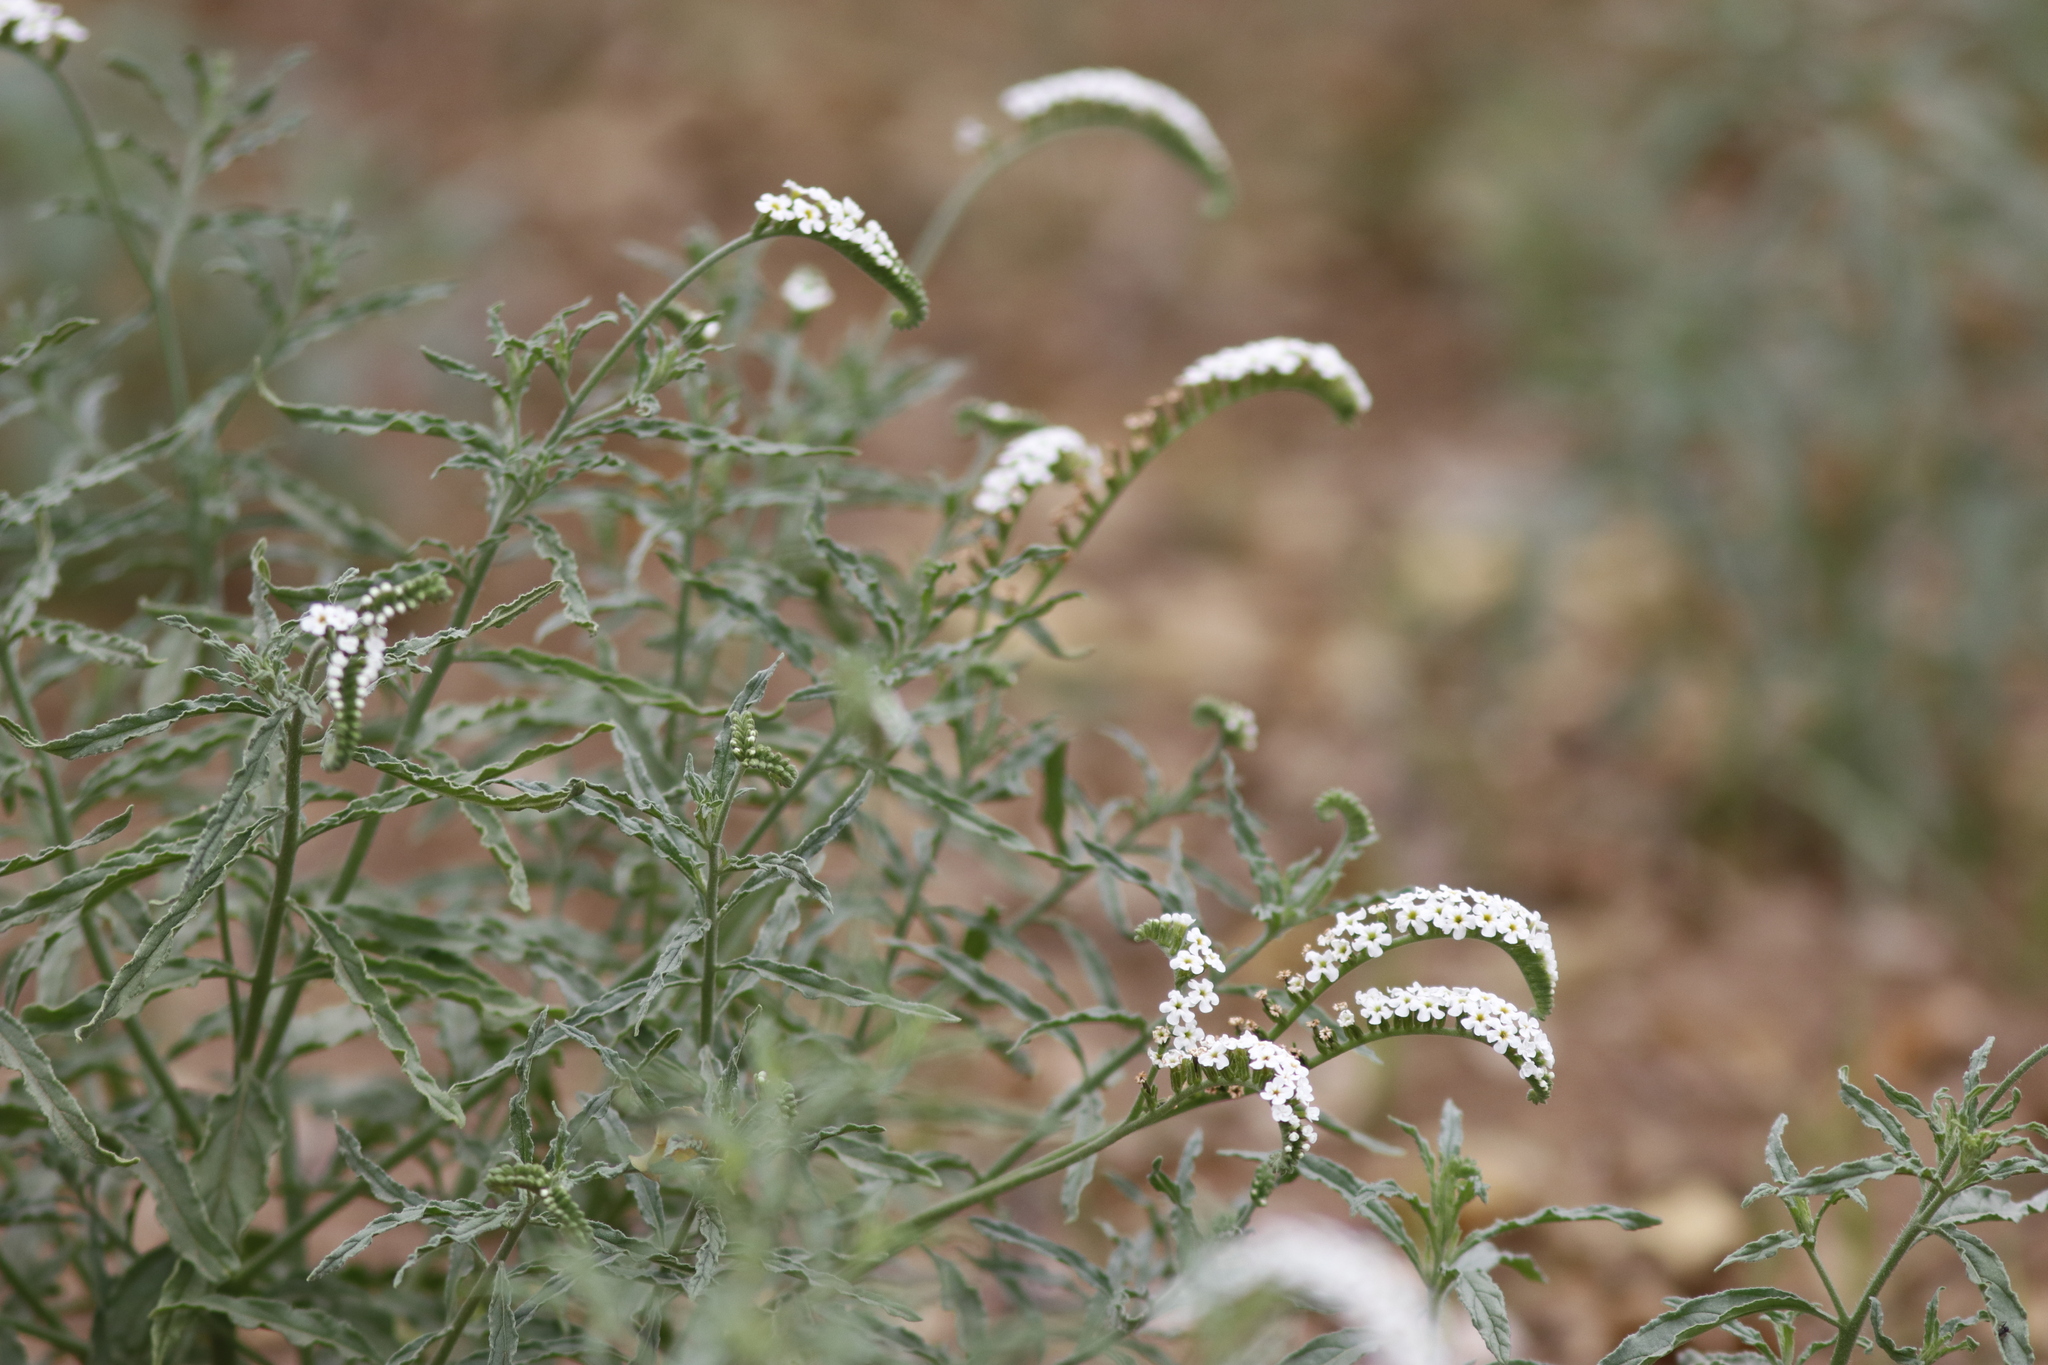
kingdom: Plantae
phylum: Tracheophyta
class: Magnoliopsida
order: Boraginales
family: Heliotropiaceae
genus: Heliotropium
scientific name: Heliotropium steudneri
